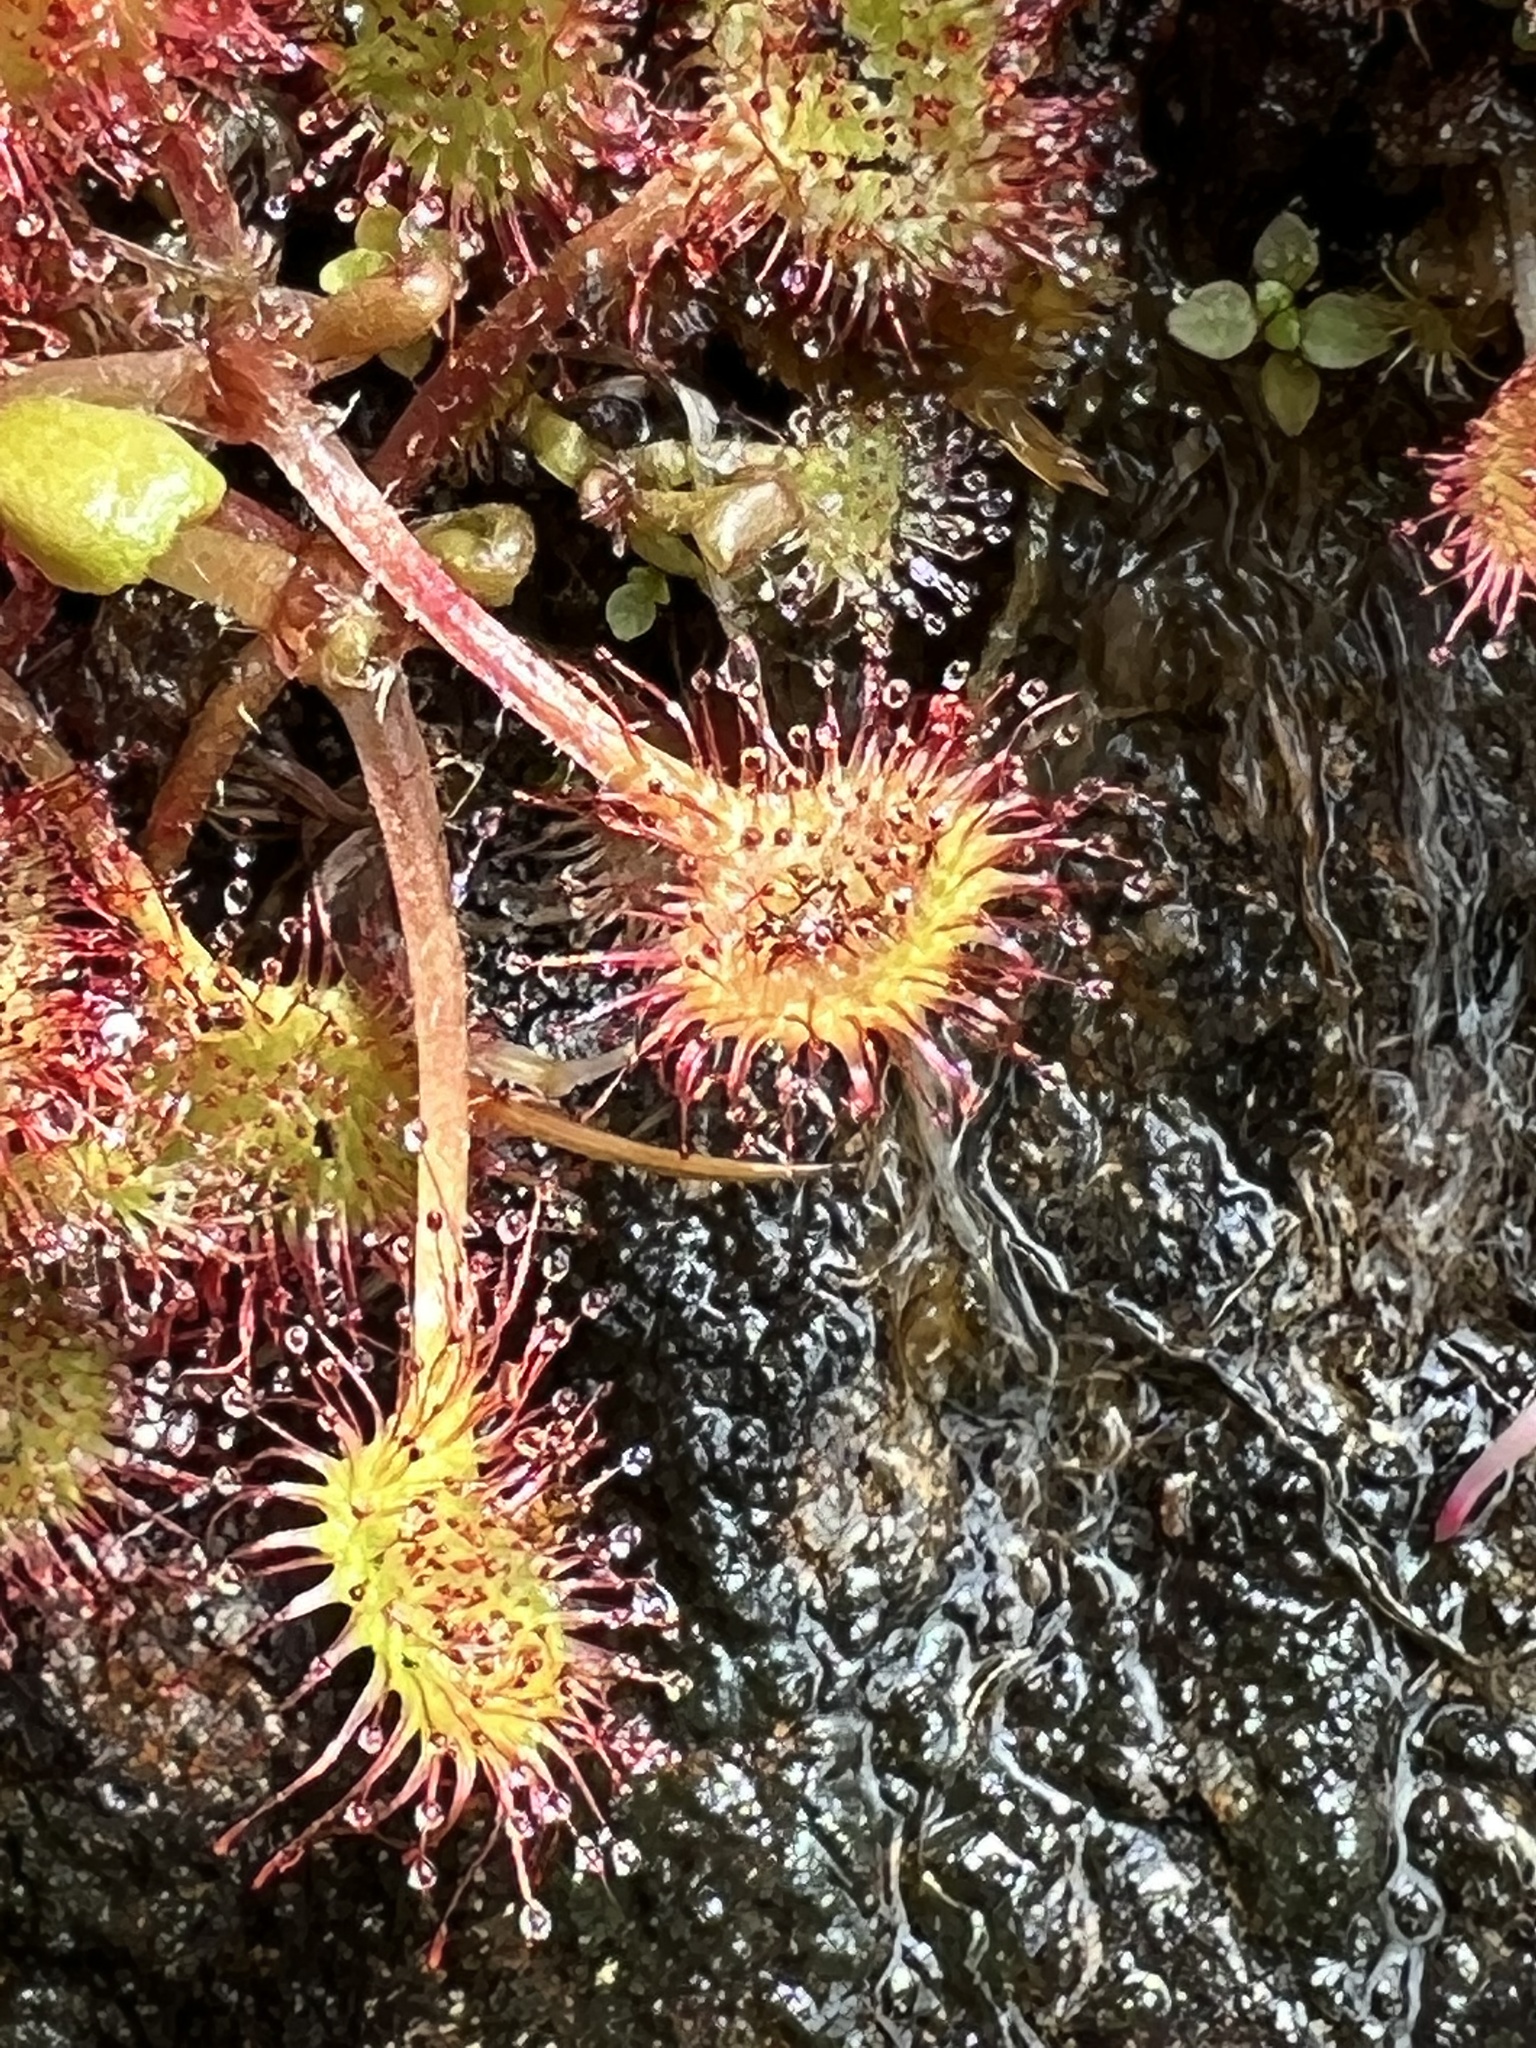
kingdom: Plantae
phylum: Tracheophyta
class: Magnoliopsida
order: Caryophyllales
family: Droseraceae
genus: Drosera
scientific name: Drosera rotundifolia
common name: Round-leaved sundew
